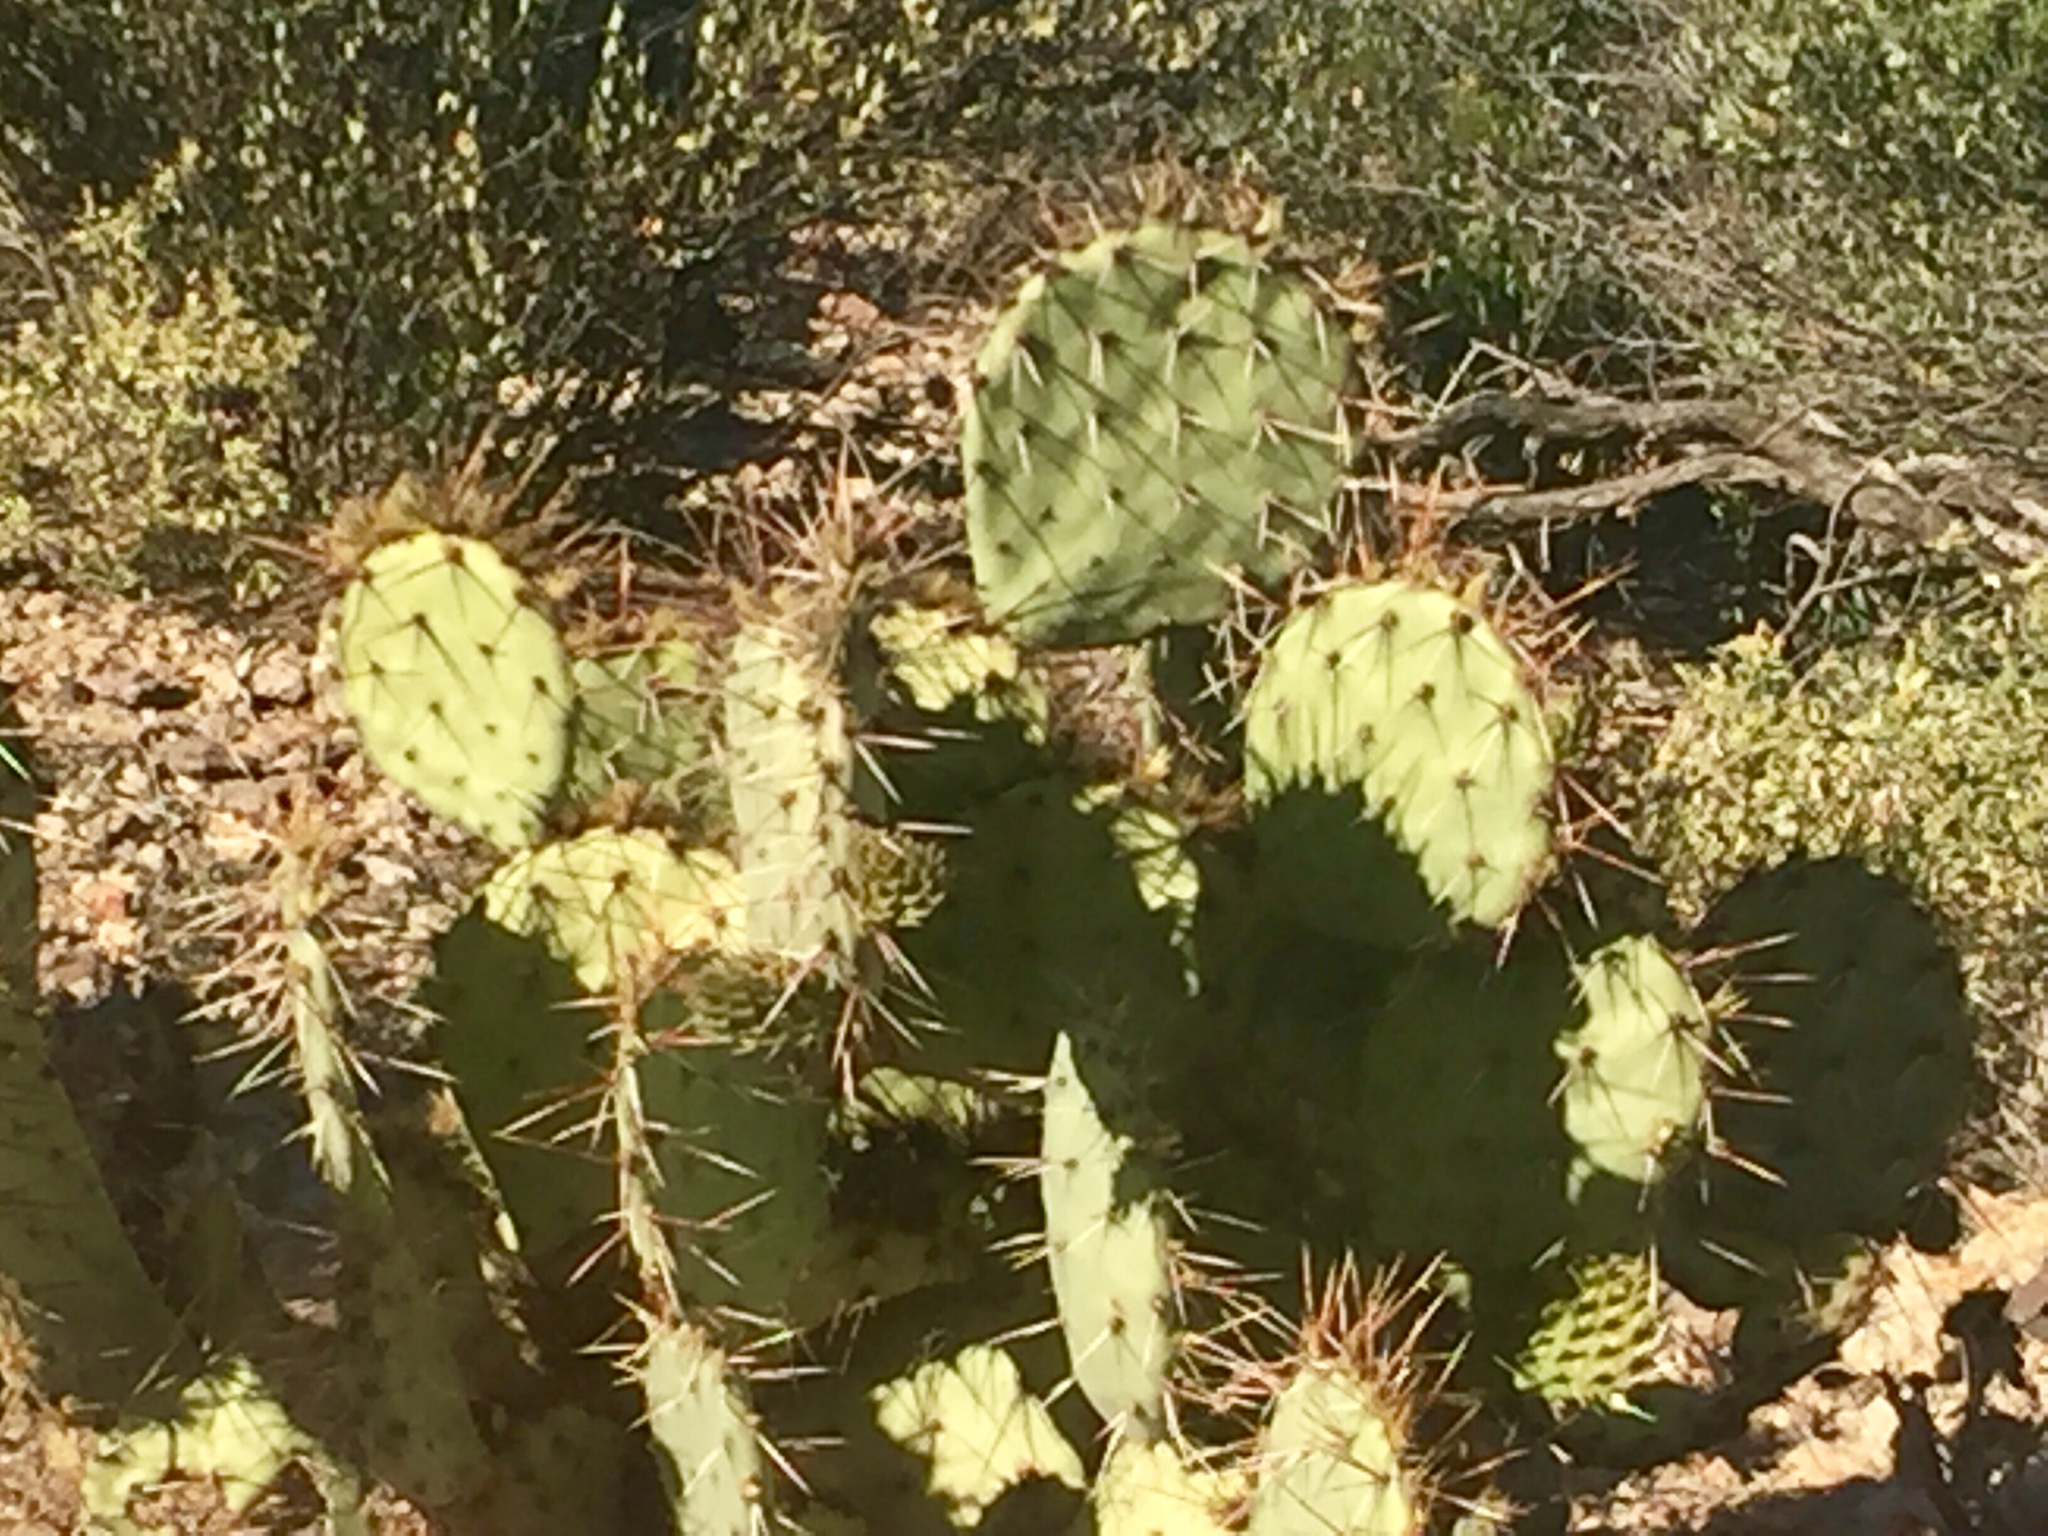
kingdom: Plantae
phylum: Tracheophyta
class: Magnoliopsida
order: Caryophyllales
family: Cactaceae
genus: Opuntia
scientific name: Opuntia phaeacantha
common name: New mexico prickly-pear
